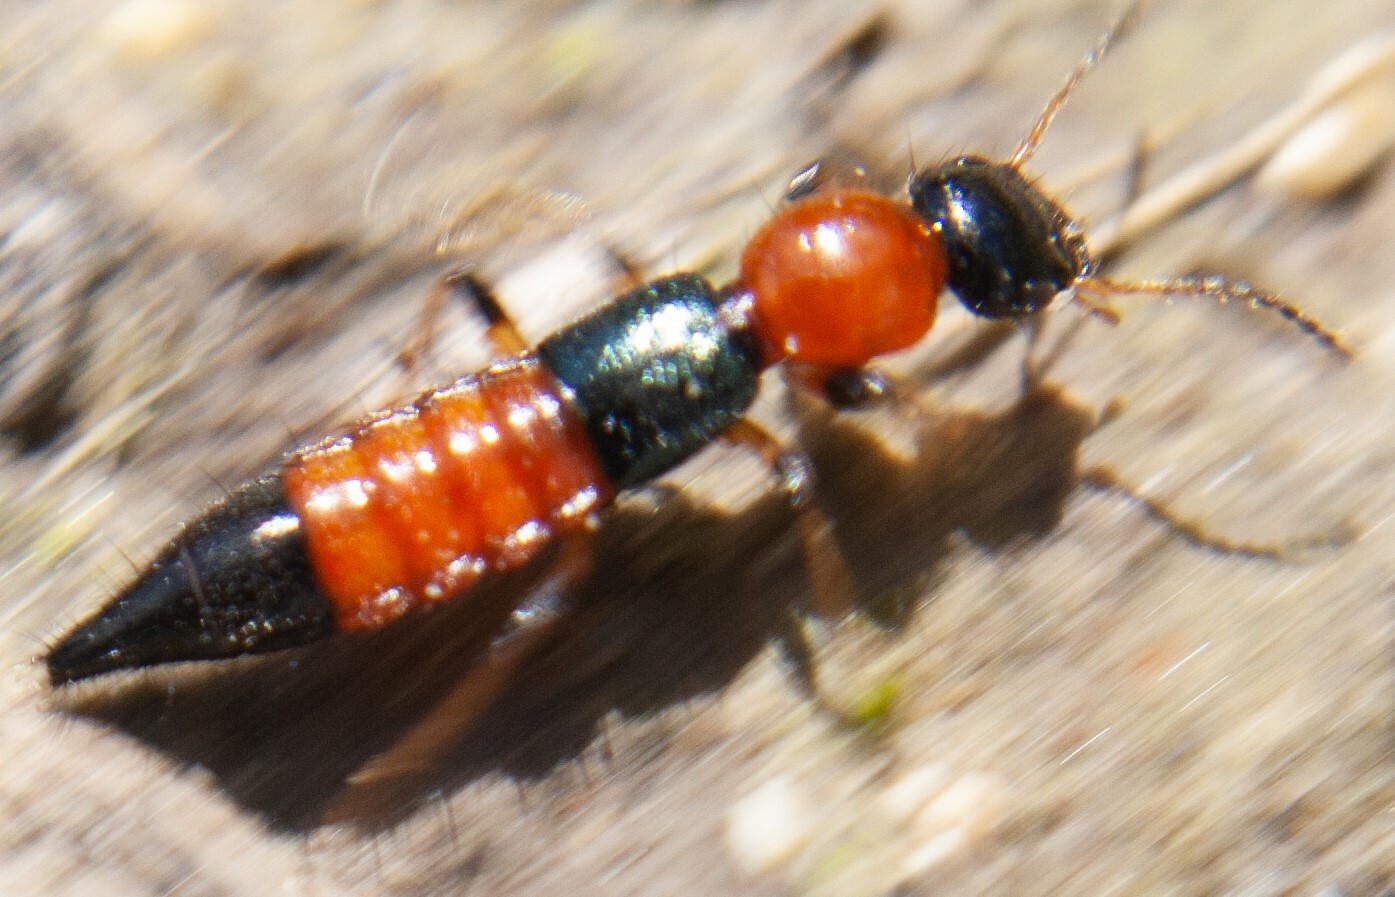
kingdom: Animalia
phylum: Arthropoda
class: Insecta
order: Coleoptera
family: Staphylinidae
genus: Paederus
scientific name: Paederus littoralis
